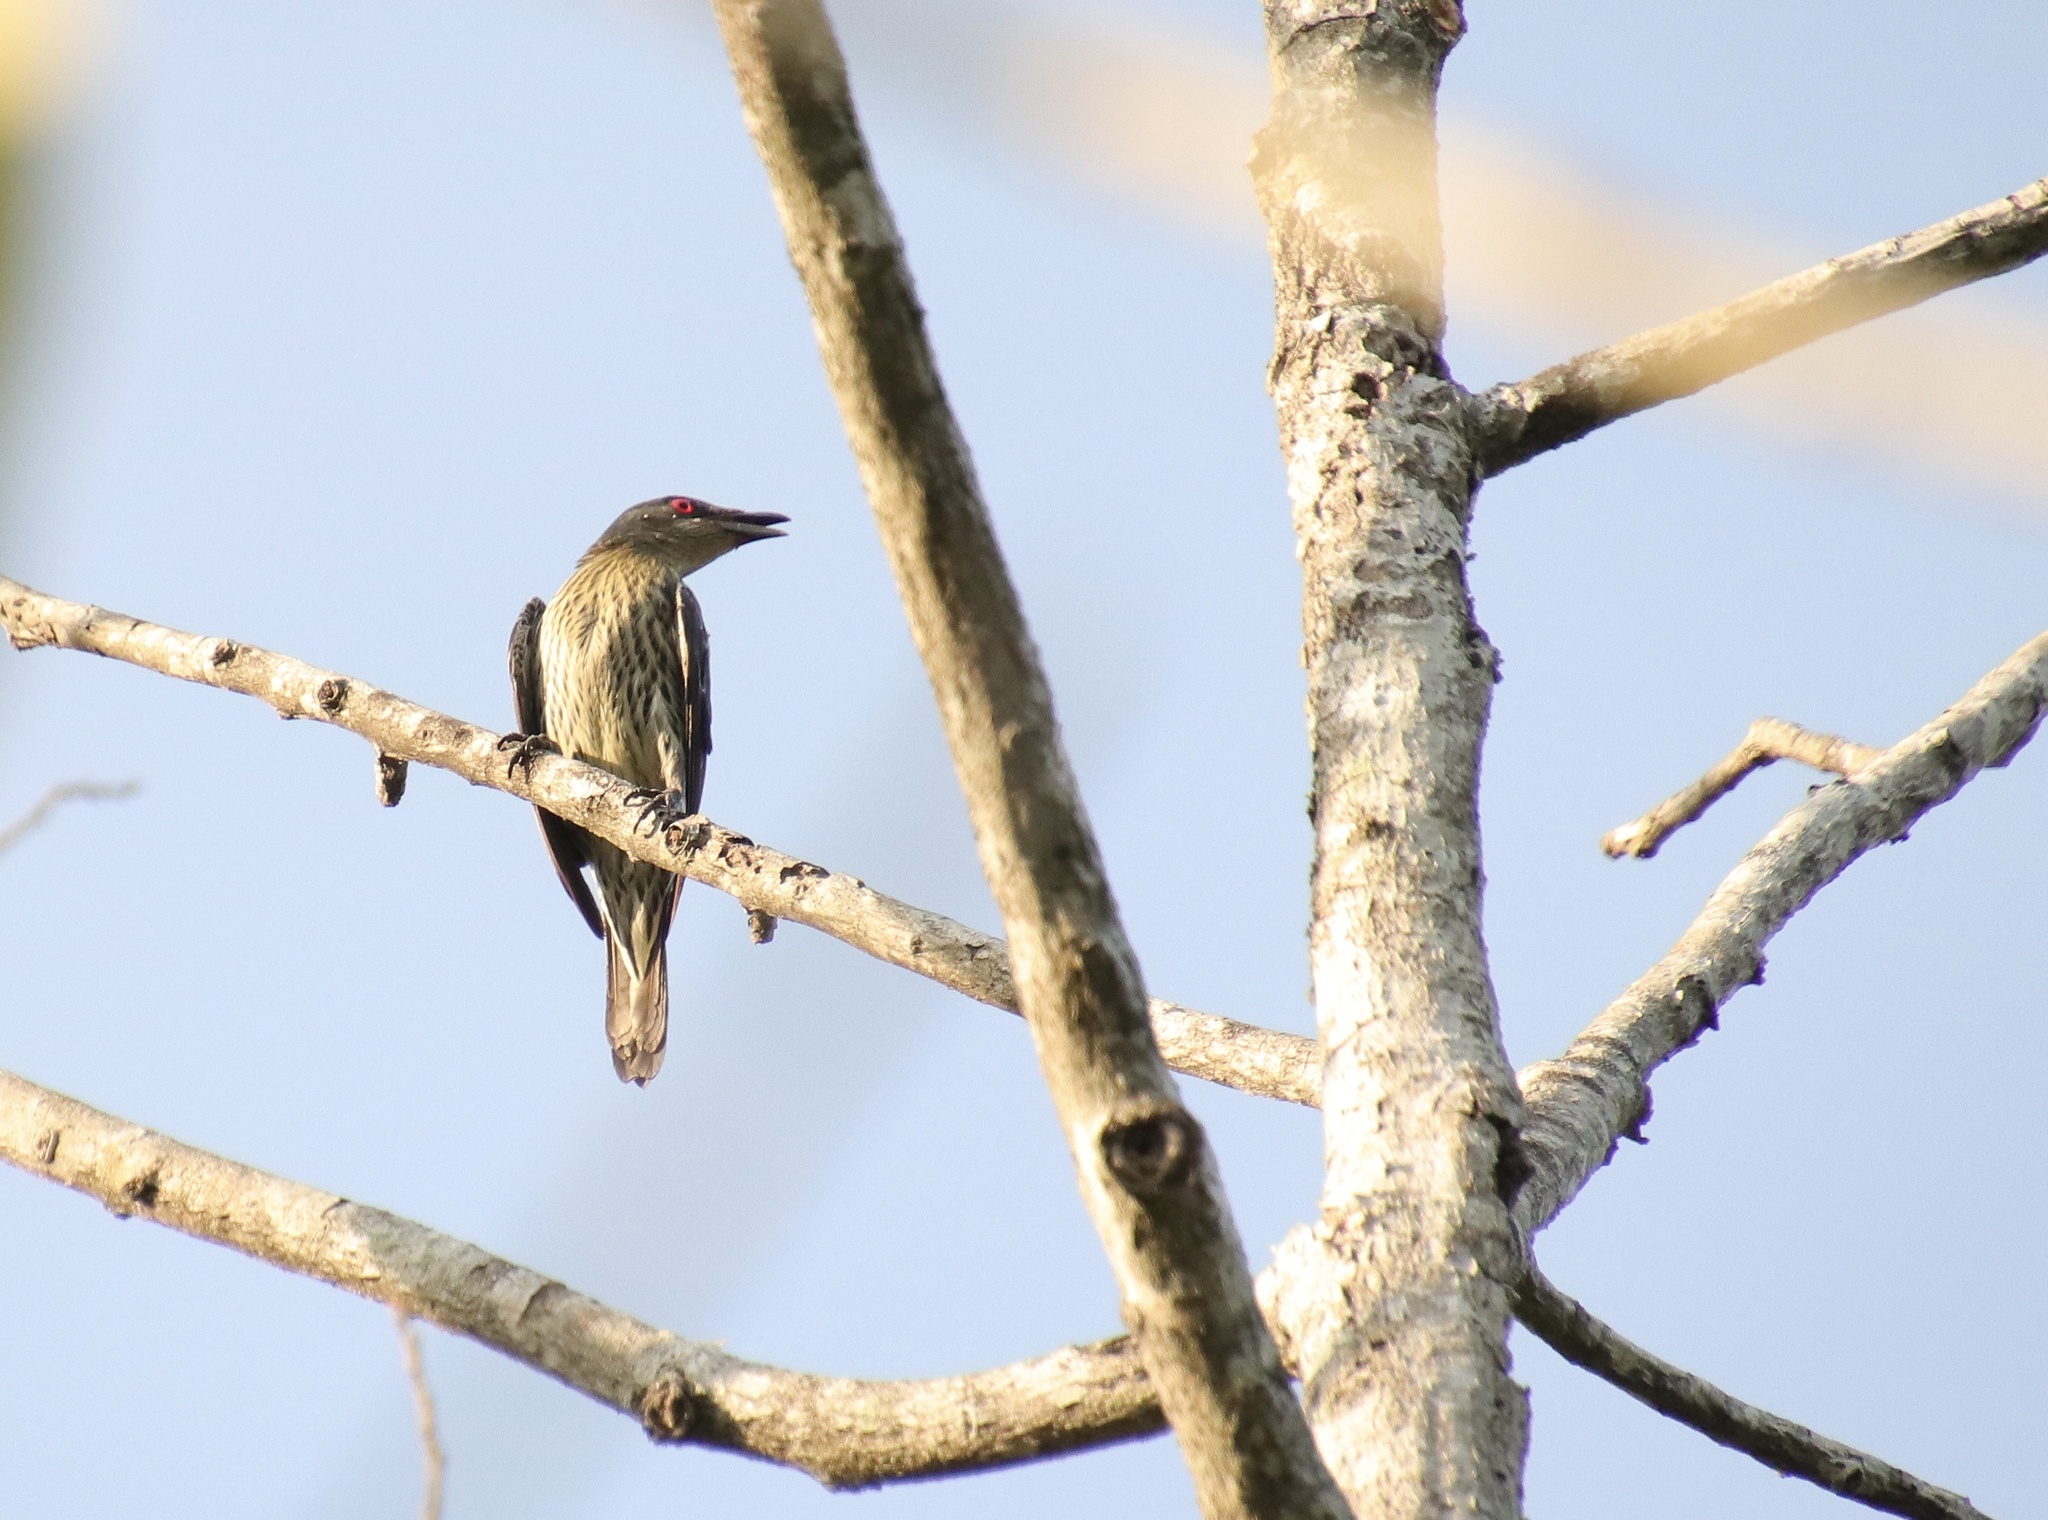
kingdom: Animalia
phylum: Chordata
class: Aves
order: Passeriformes
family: Sturnidae
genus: Aplonis
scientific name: Aplonis panayensis
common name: Asian glossy starling
